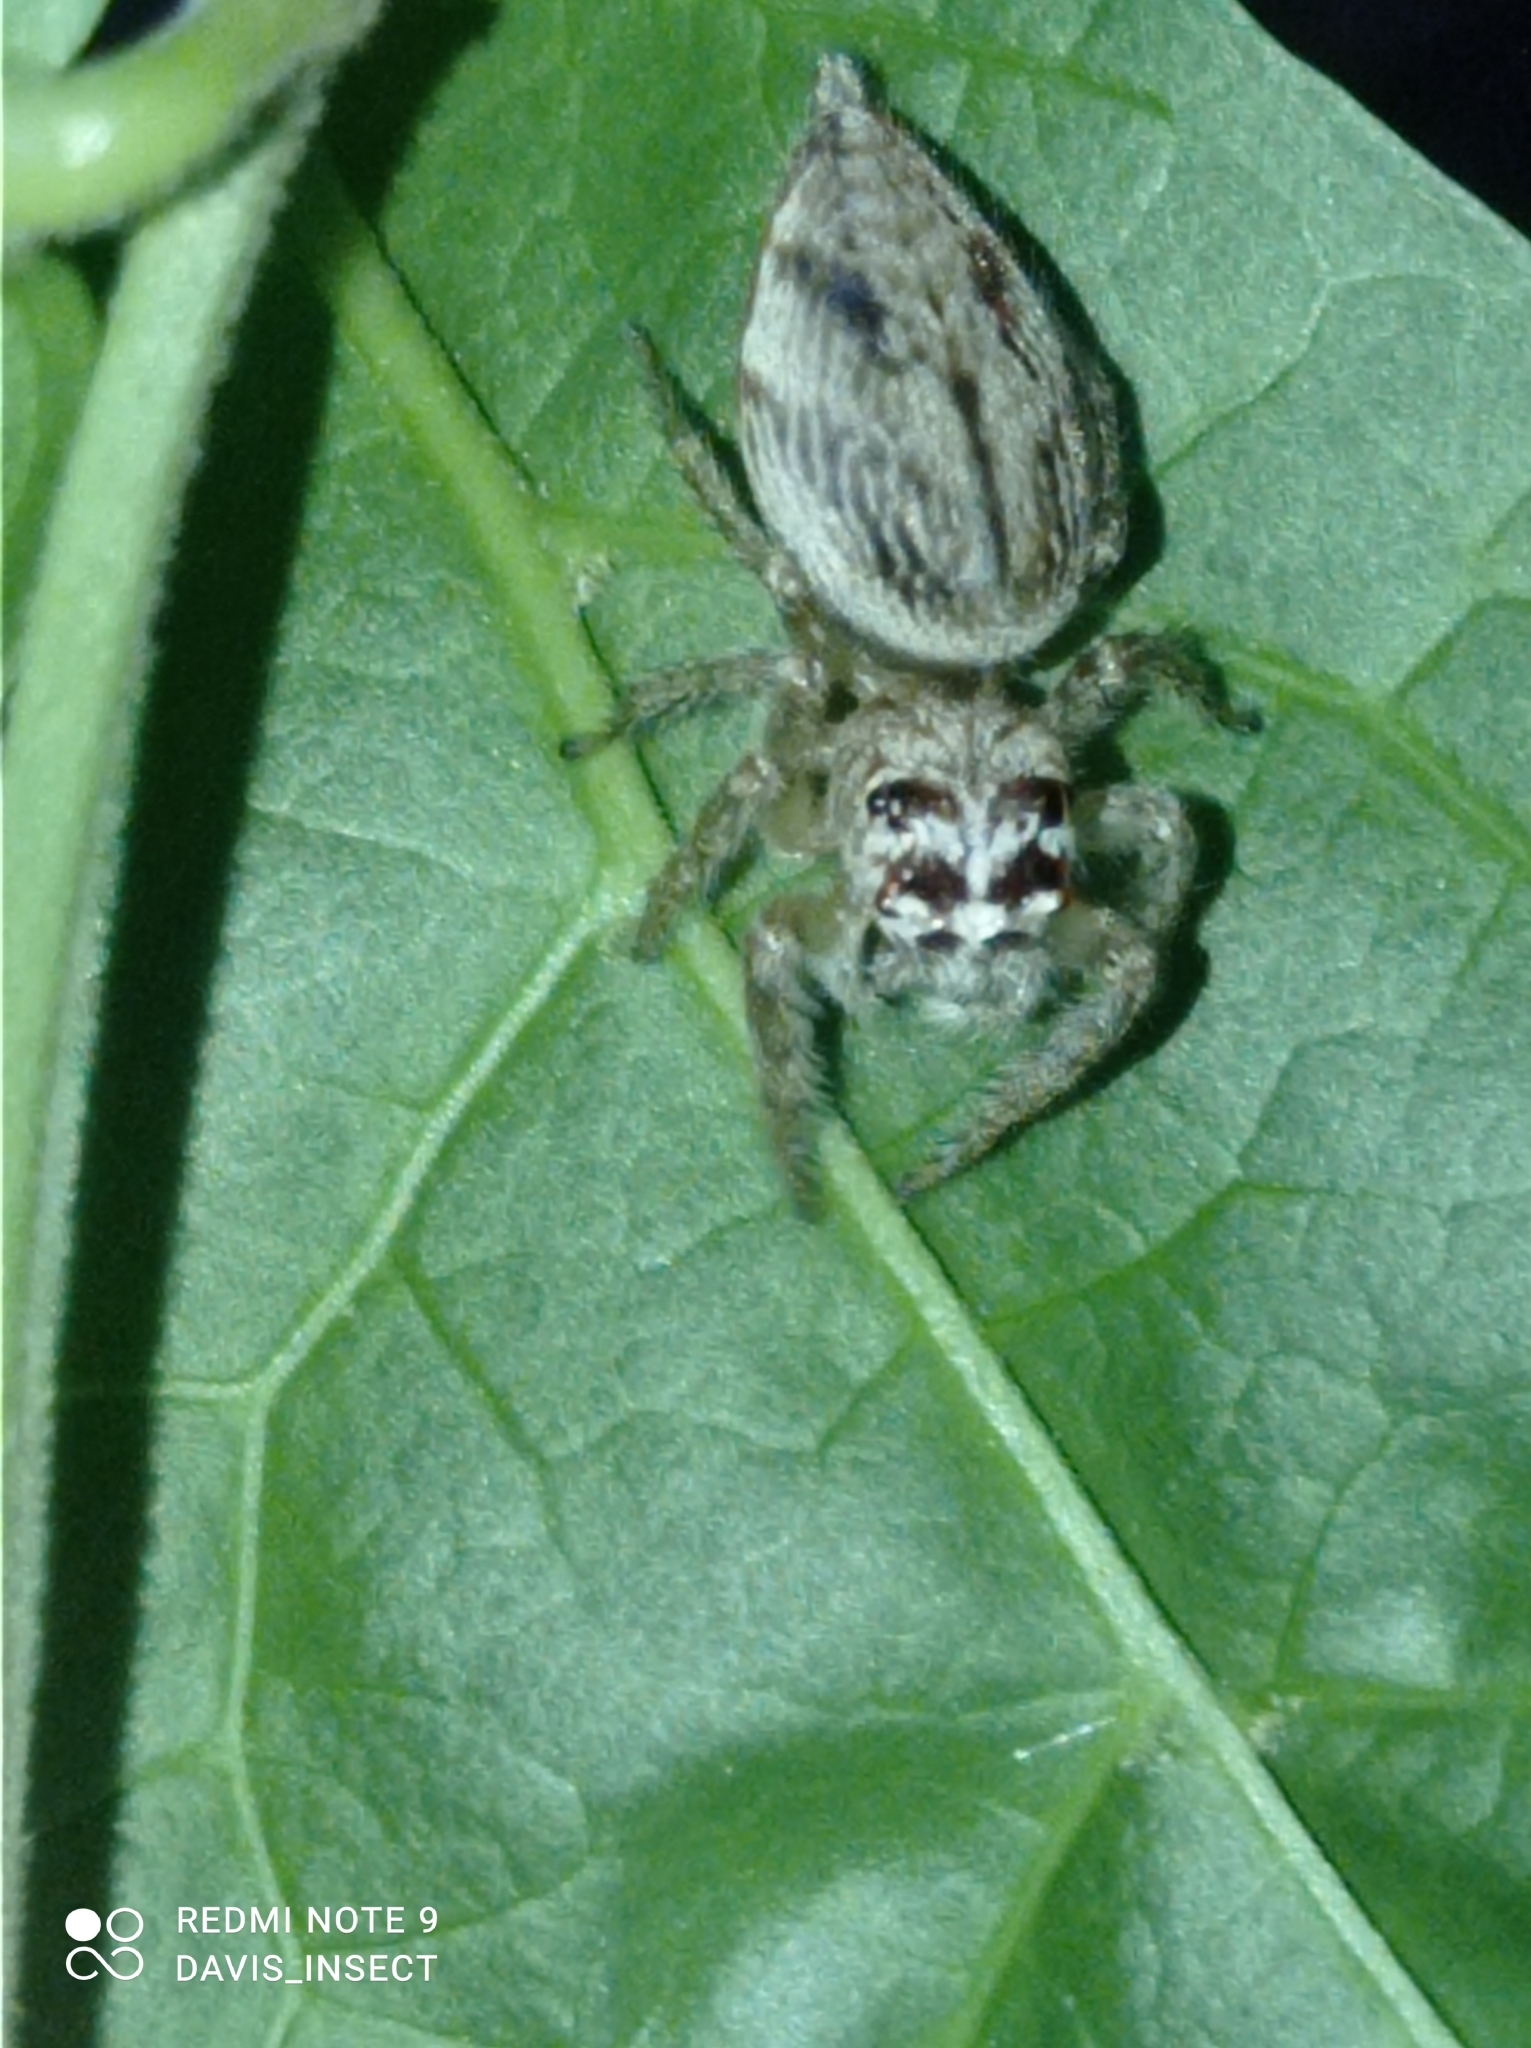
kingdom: Animalia
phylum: Arthropoda
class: Arachnida
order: Araneae
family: Salticidae
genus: Artabrus
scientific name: Artabrus aurantipilosus
